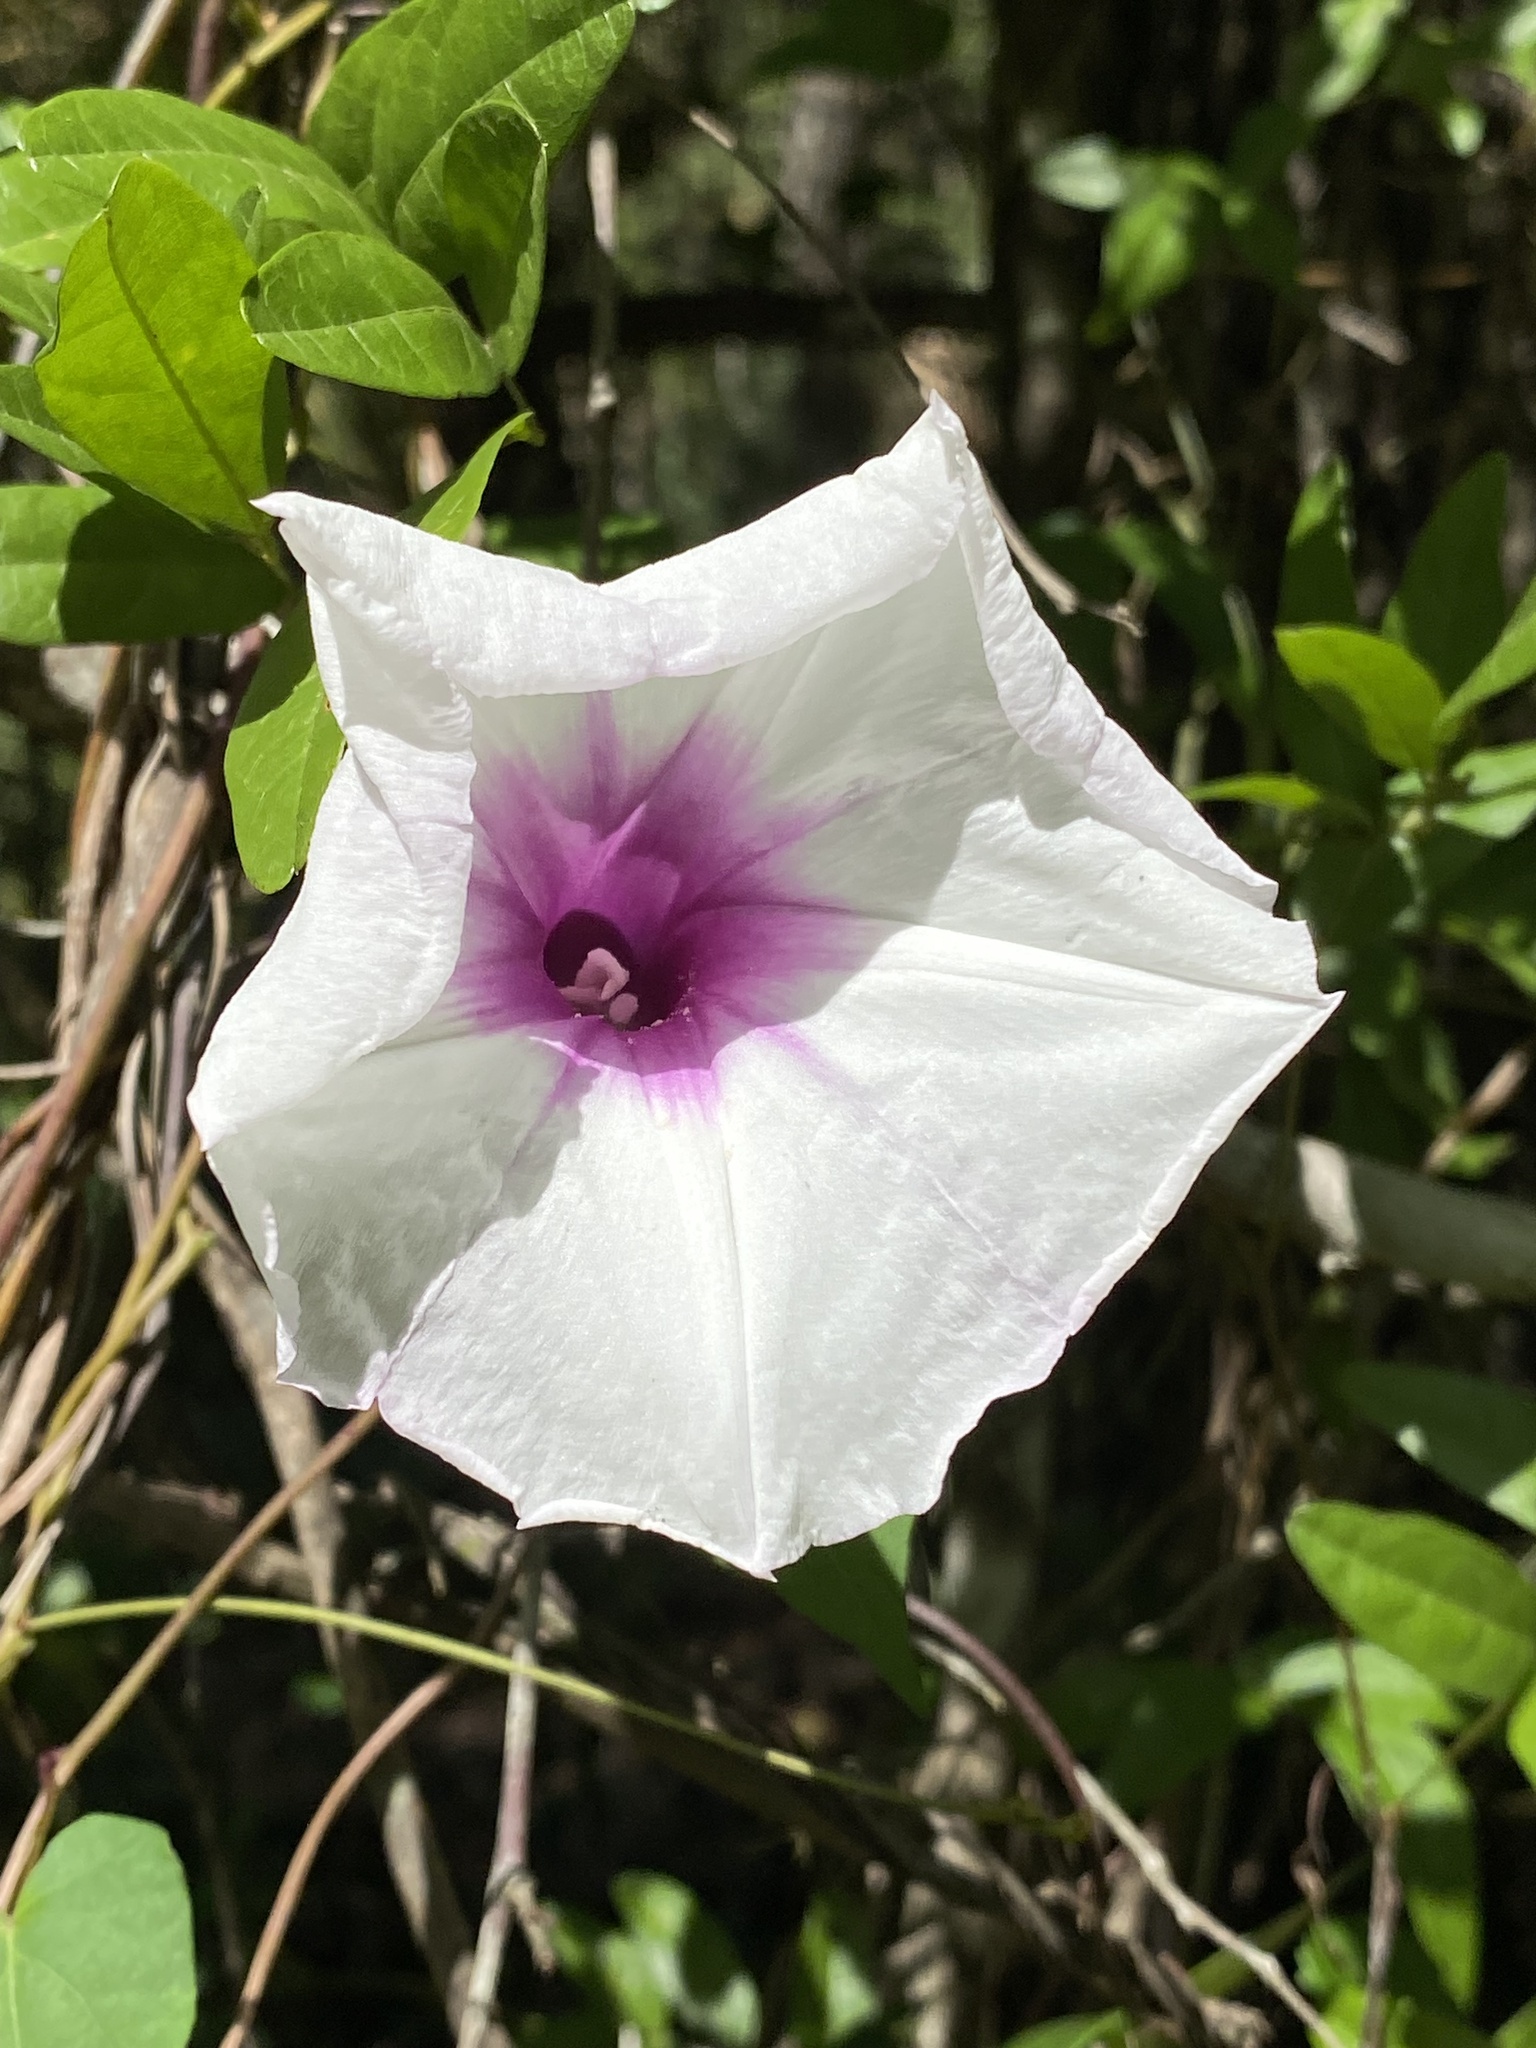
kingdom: Plantae
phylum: Tracheophyta
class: Magnoliopsida
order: Solanales
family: Convolvulaceae
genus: Ipomoea
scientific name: Ipomoea pandurata
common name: Man-of-the-earth
